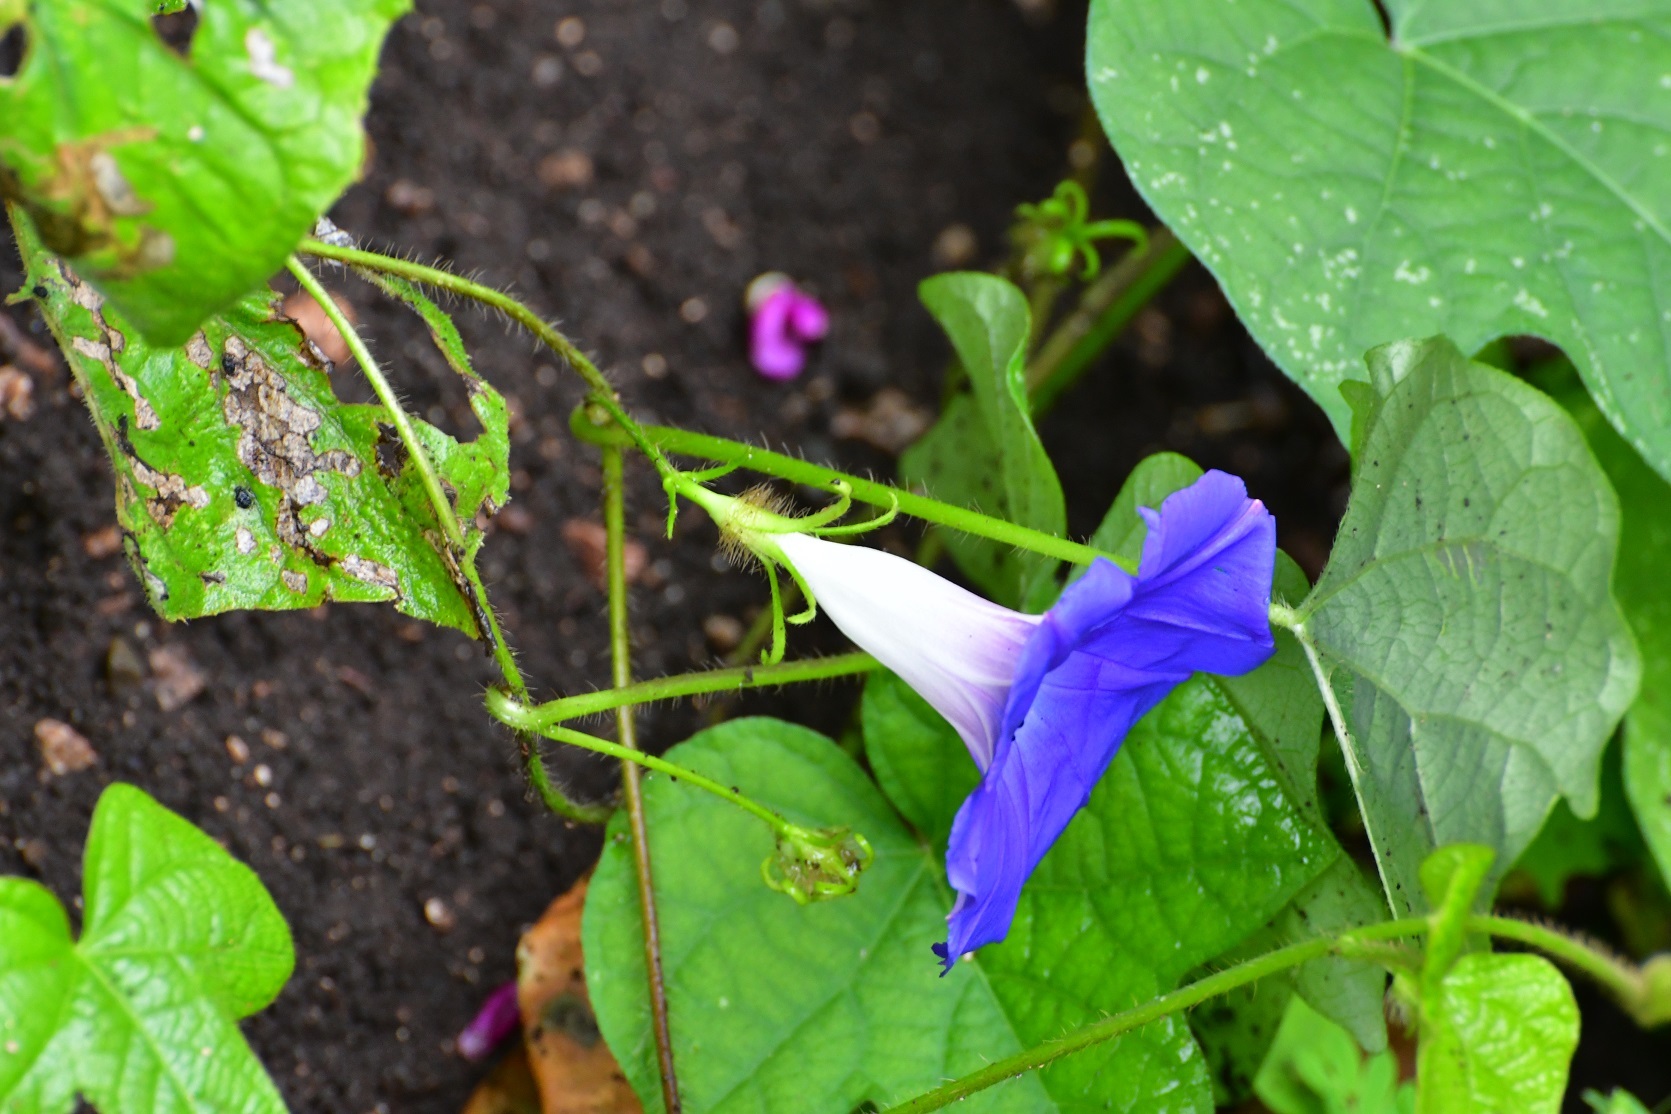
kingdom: Plantae
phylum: Tracheophyta
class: Magnoliopsida
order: Solanales
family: Convolvulaceae
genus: Ipomoea
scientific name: Ipomoea hederacea
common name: Ivy-leaved morning-glory
